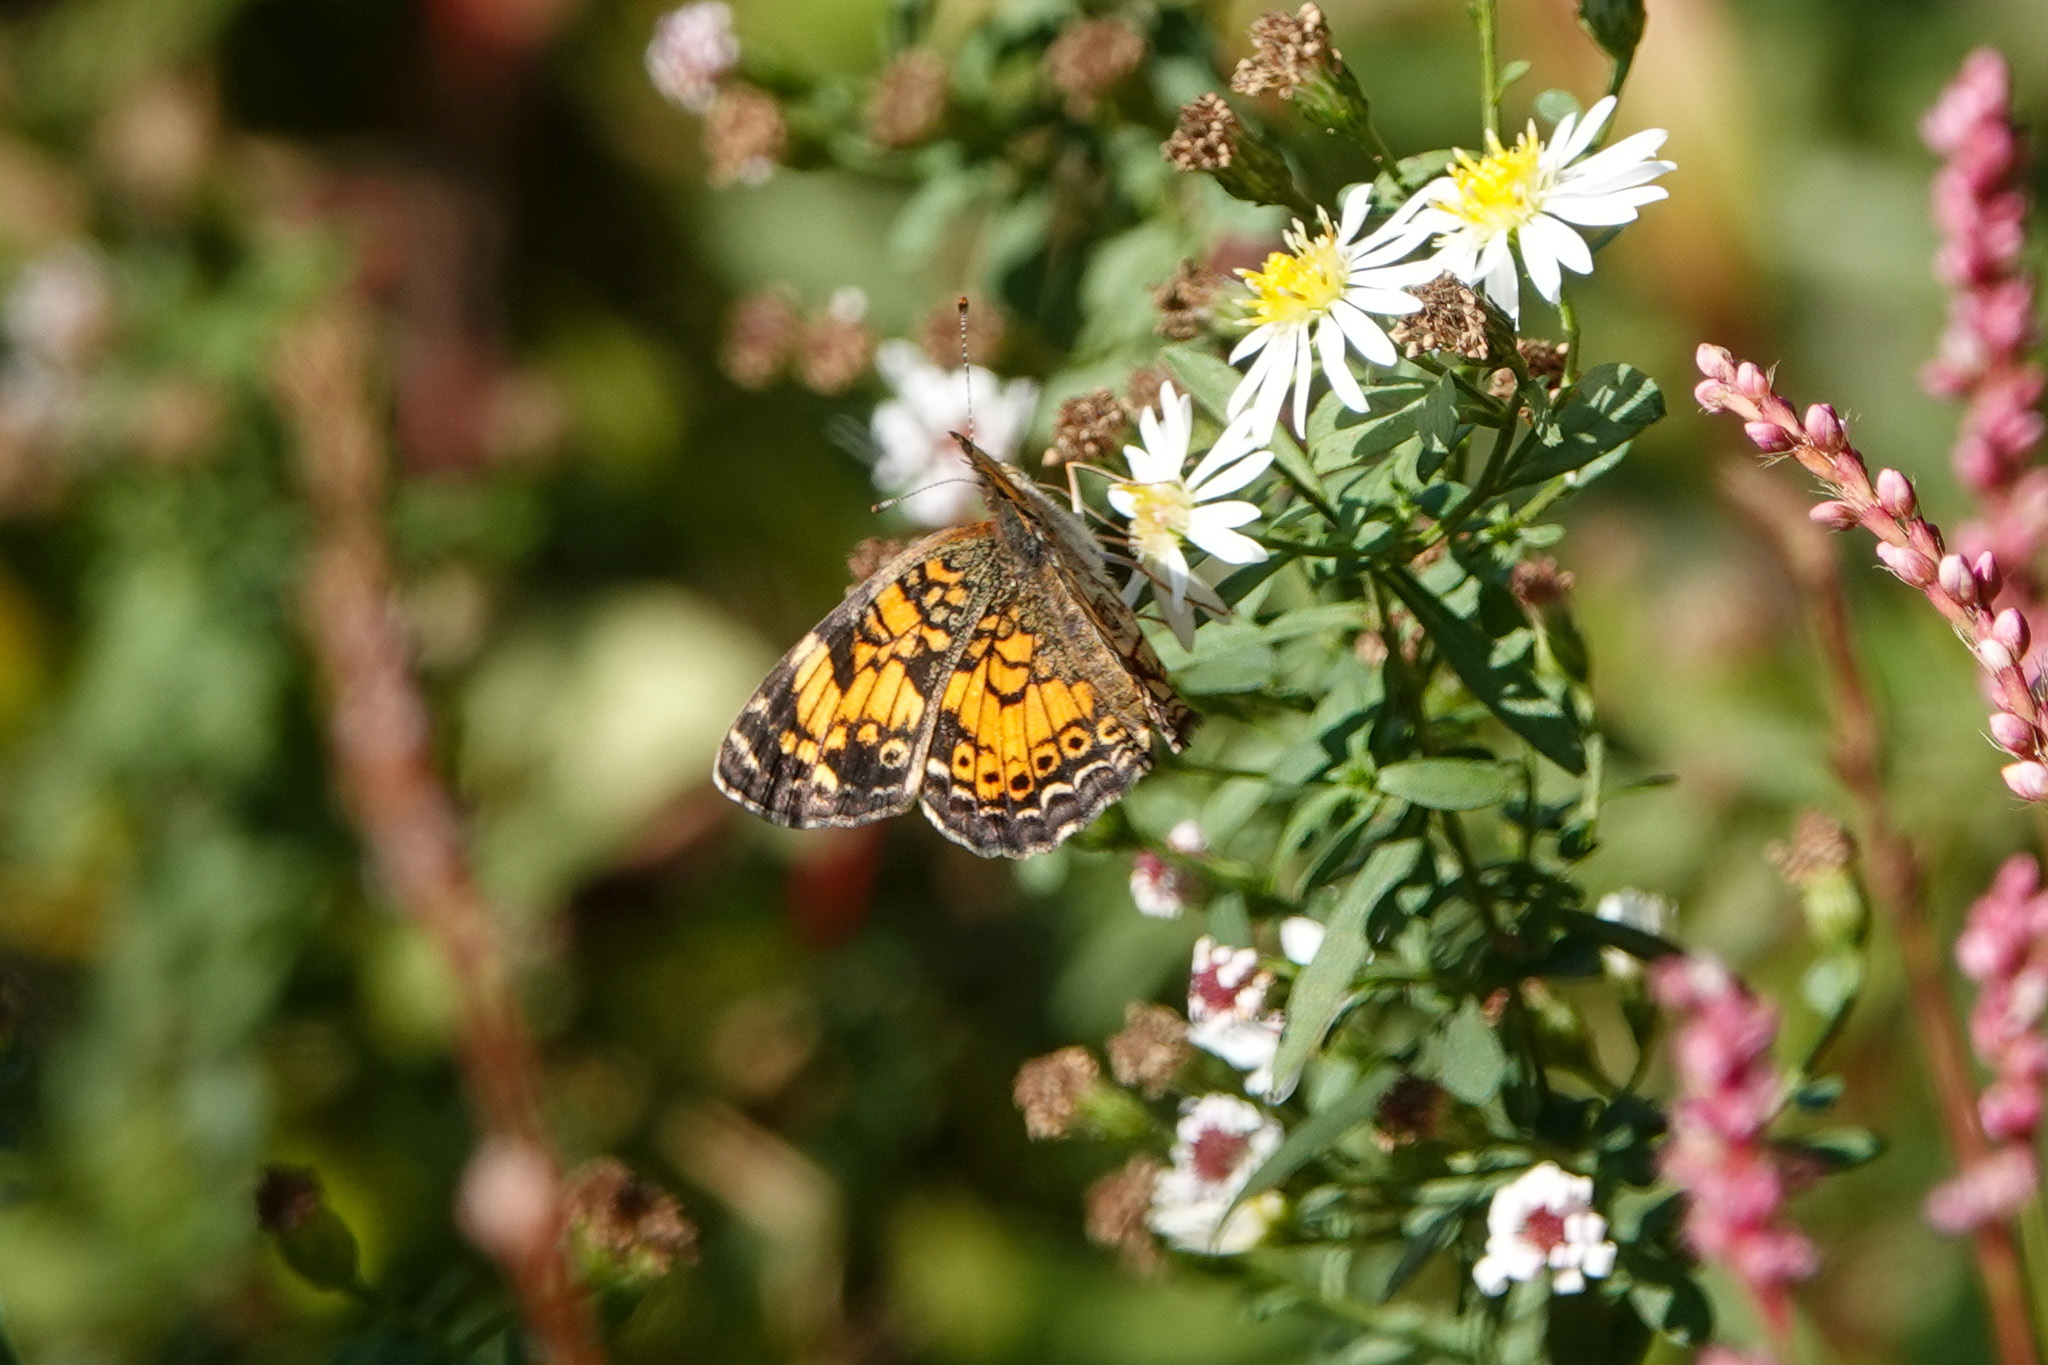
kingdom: Animalia
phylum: Arthropoda
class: Insecta
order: Lepidoptera
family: Nymphalidae
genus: Phyciodes
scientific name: Phyciodes tharos
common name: Pearl crescent
